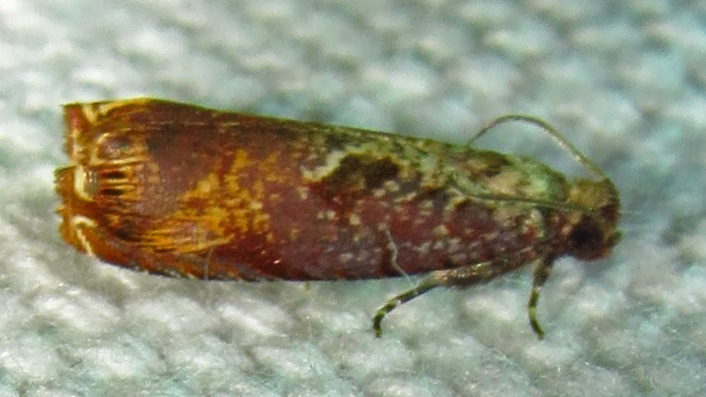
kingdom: Animalia
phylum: Arthropoda
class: Insecta
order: Lepidoptera
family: Tortricidae
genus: Episimus
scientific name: Episimus tyrius
